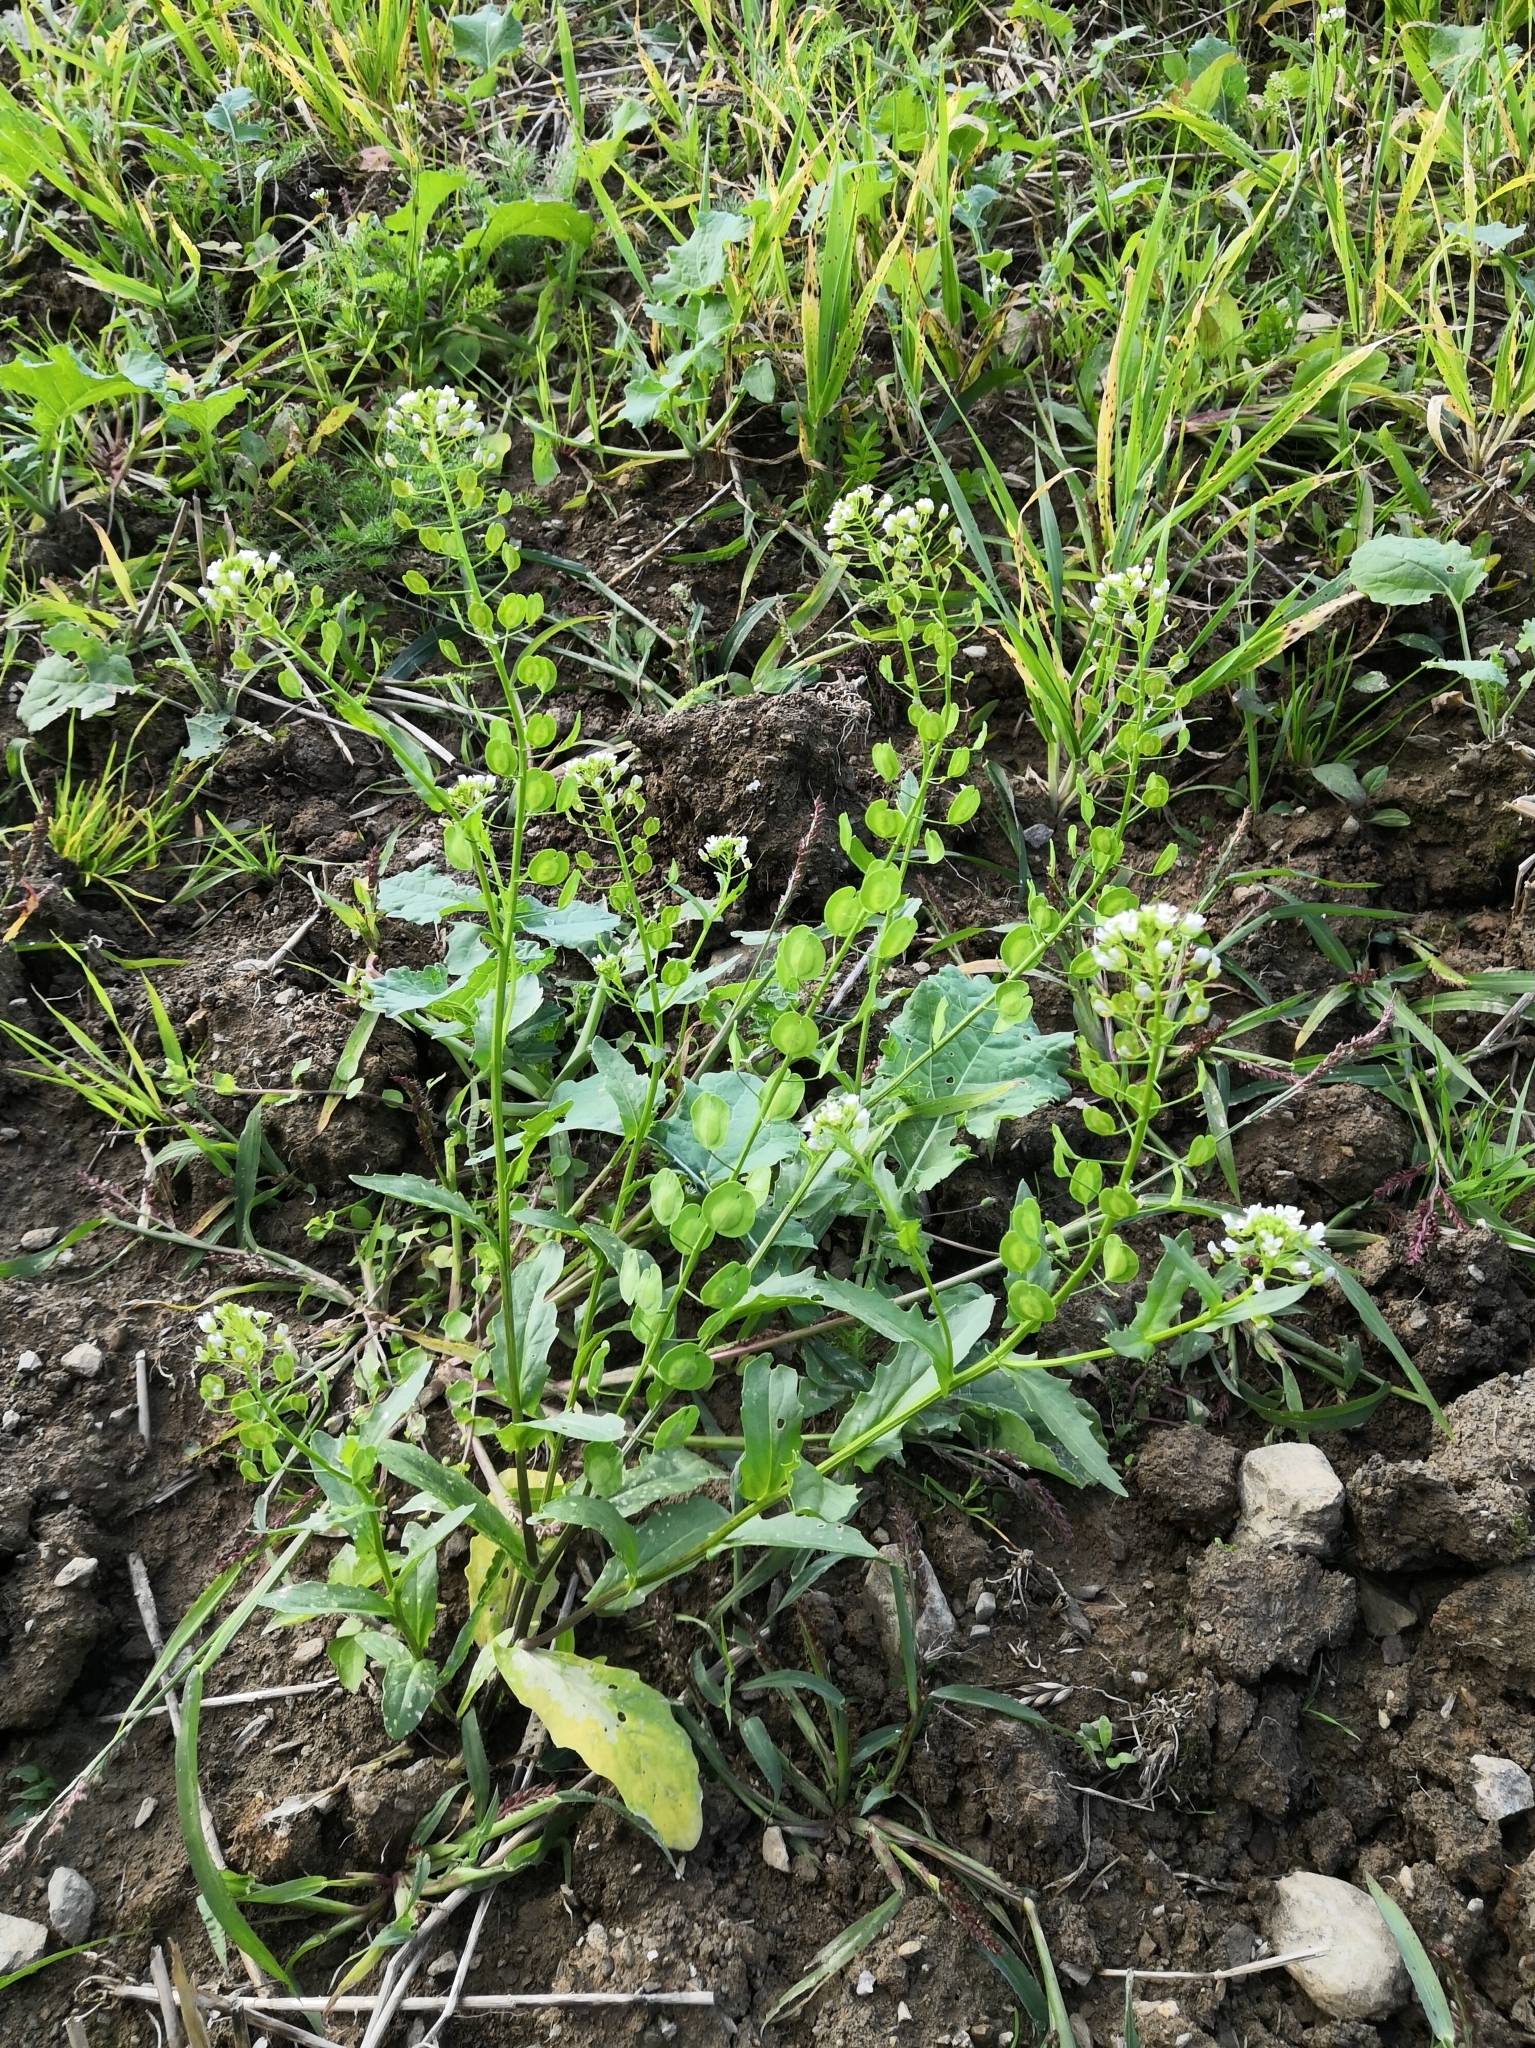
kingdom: Plantae
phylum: Tracheophyta
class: Magnoliopsida
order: Brassicales
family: Brassicaceae
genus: Thlaspi
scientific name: Thlaspi arvense
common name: Field pennycress
